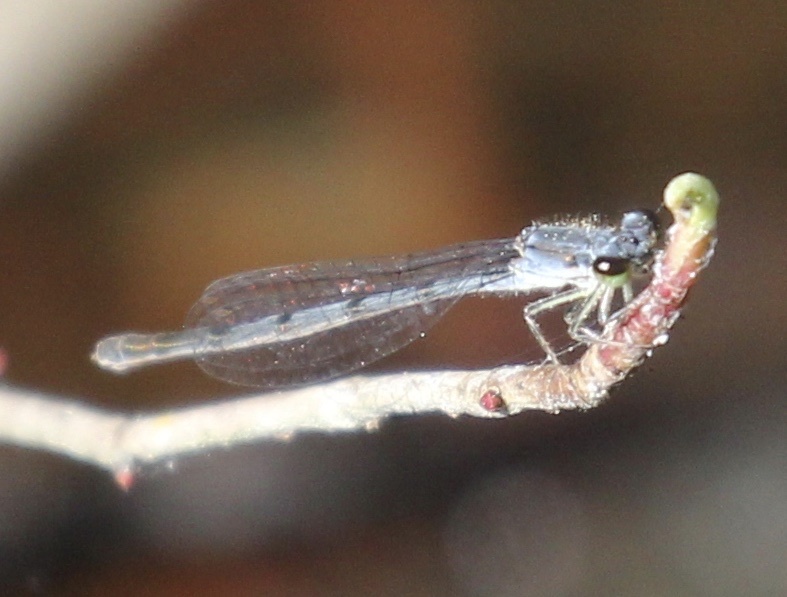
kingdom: Animalia
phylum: Arthropoda
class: Insecta
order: Odonata
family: Coenagrionidae
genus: Ischnura
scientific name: Ischnura posita
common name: Fragile forktail
